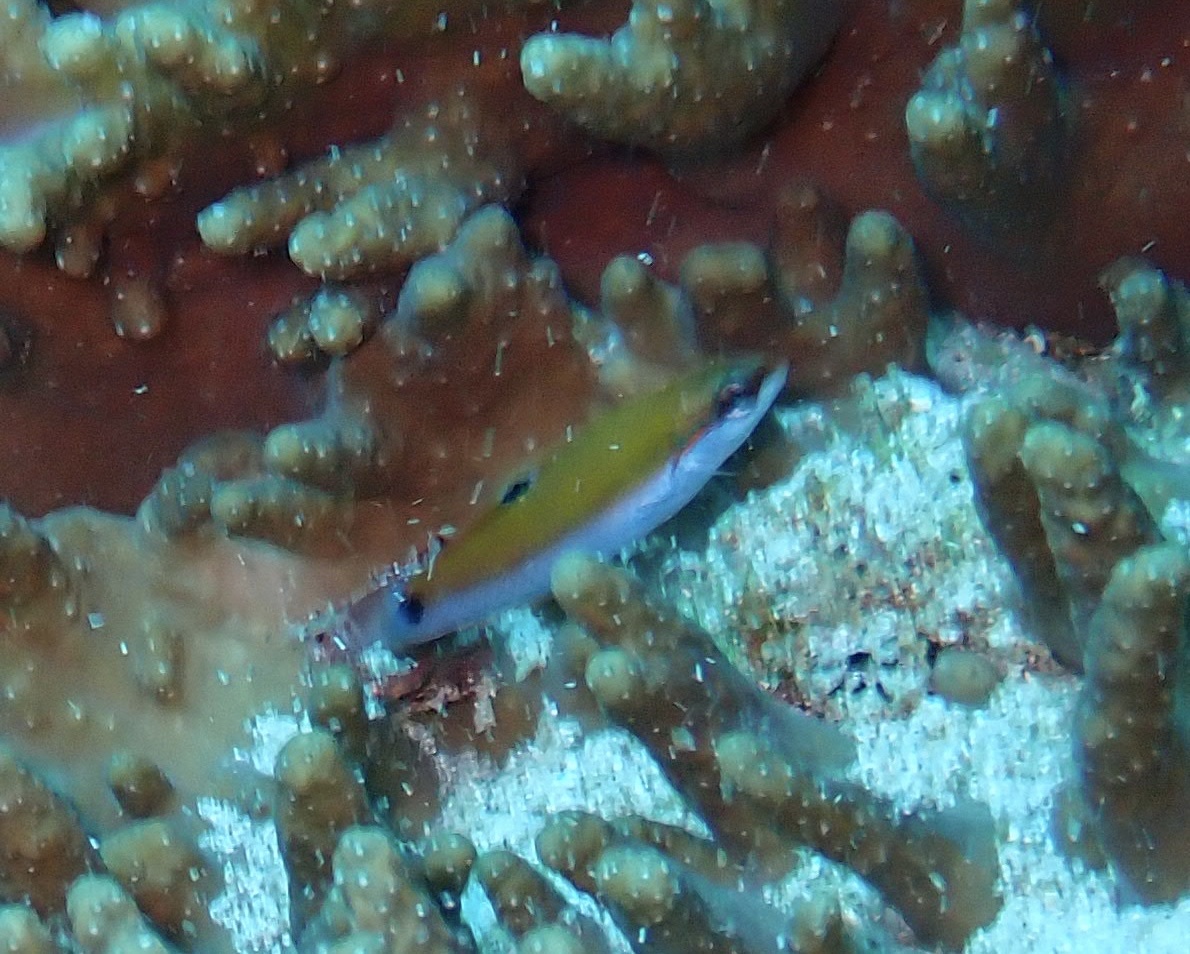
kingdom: Animalia
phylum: Chordata
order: Perciformes
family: Labridae
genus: Thalassoma
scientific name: Thalassoma lunare
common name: Blue wrasse
